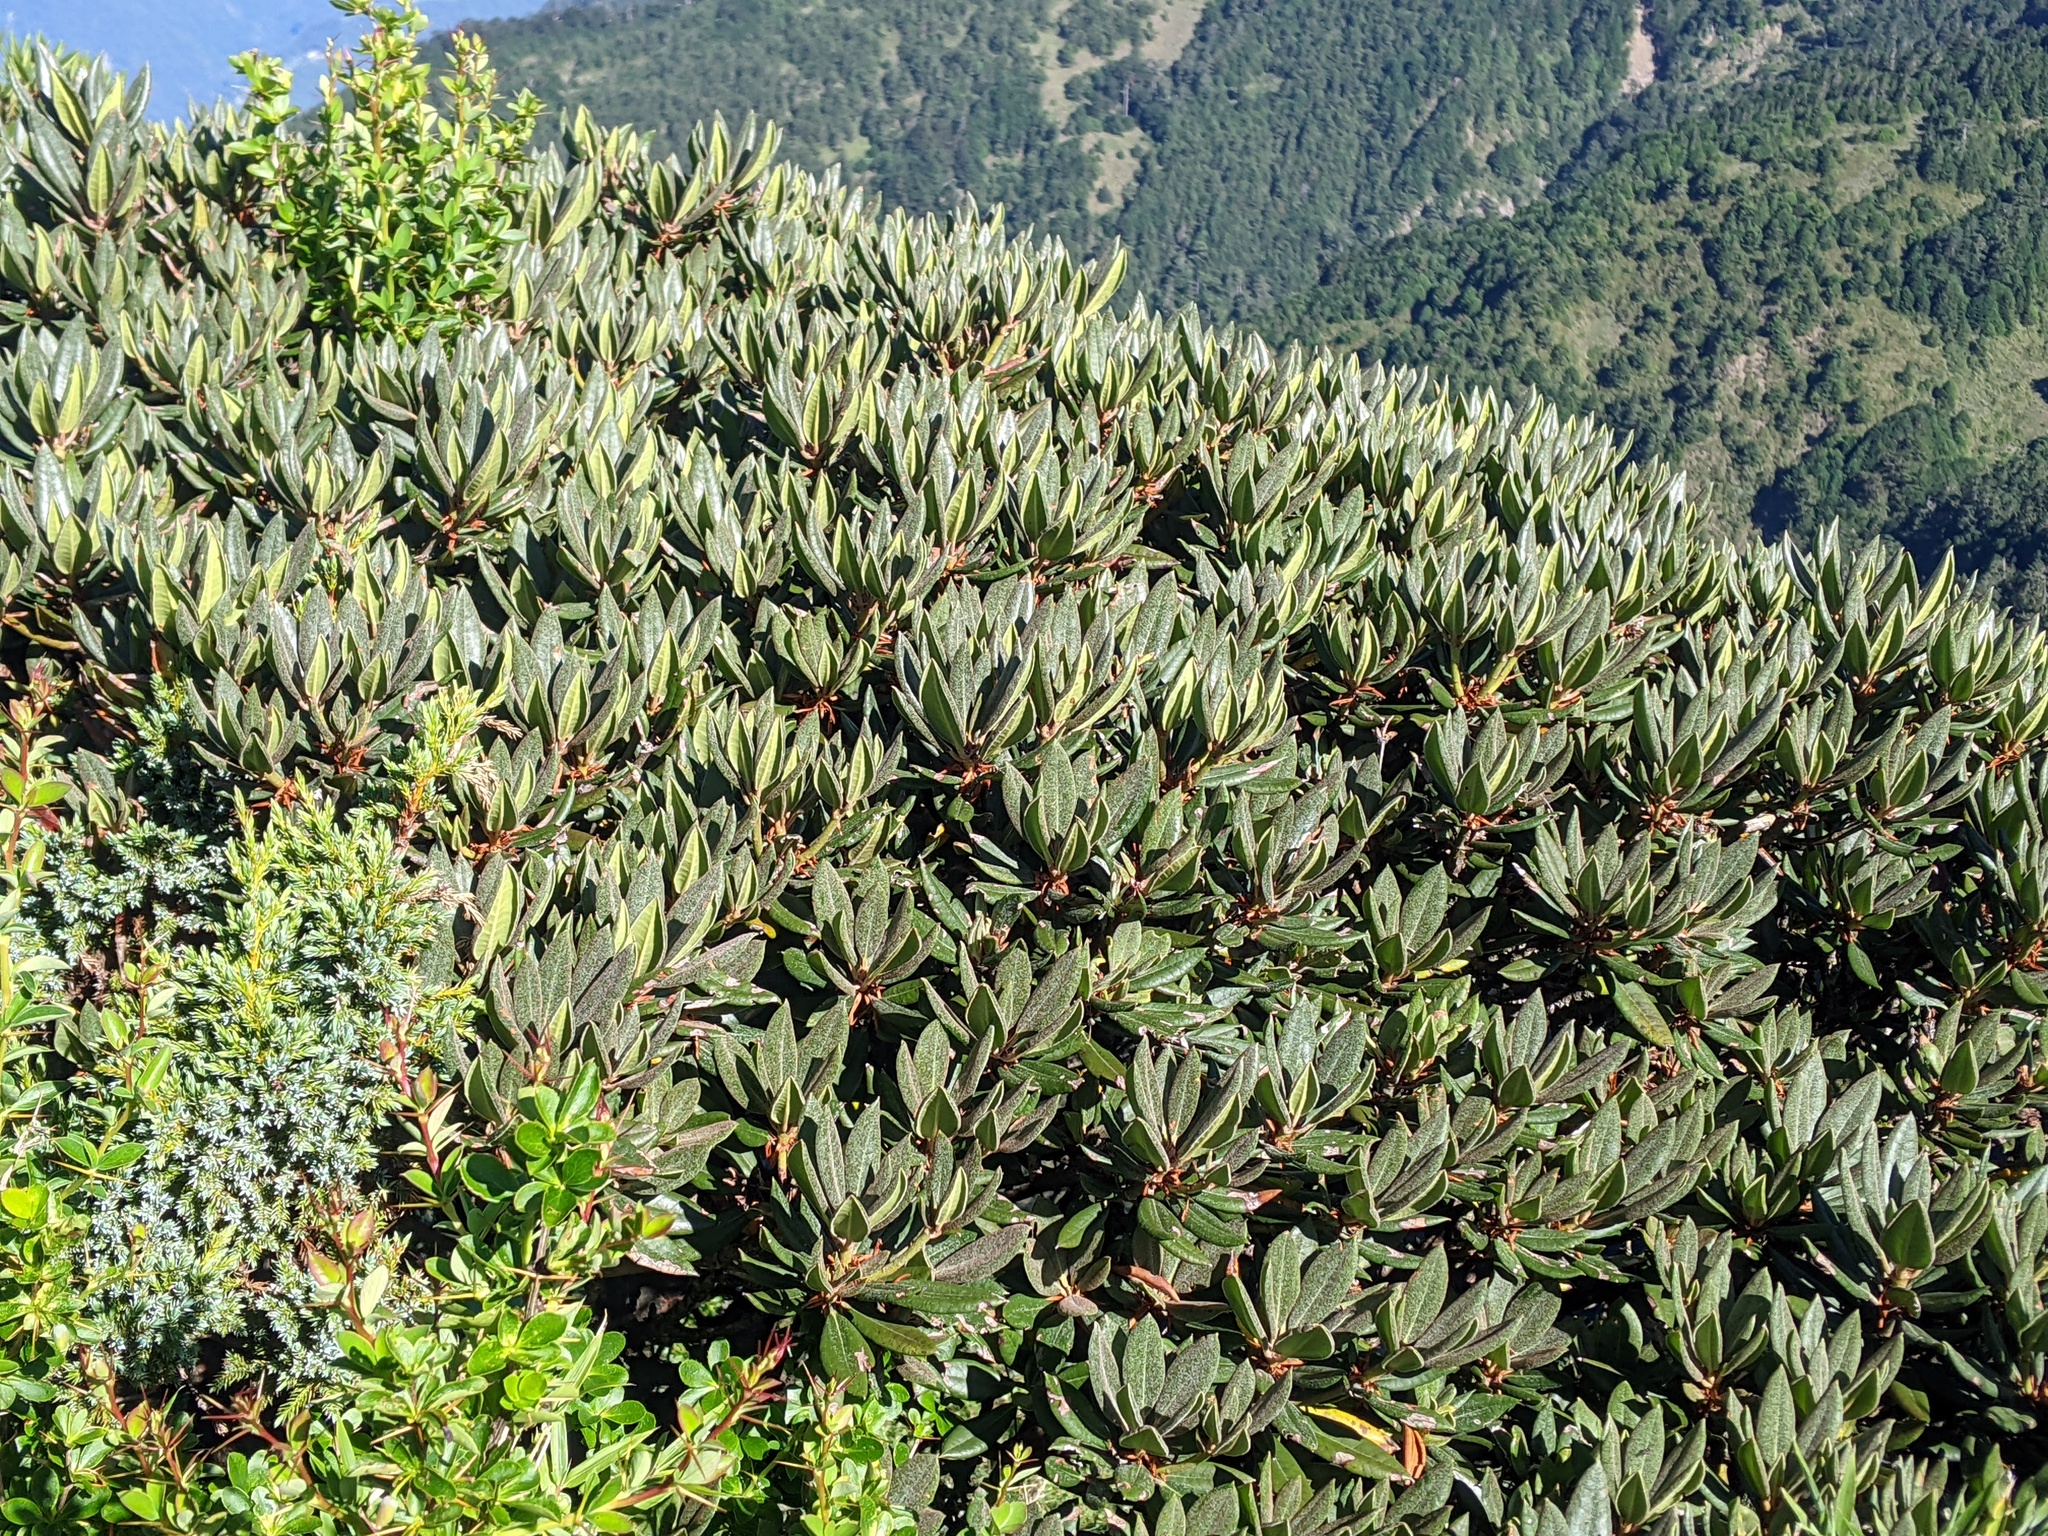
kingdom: Plantae
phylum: Tracheophyta
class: Magnoliopsida
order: Ericales
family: Ericaceae
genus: Rhododendron
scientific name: Rhododendron pseudochrysanthum
